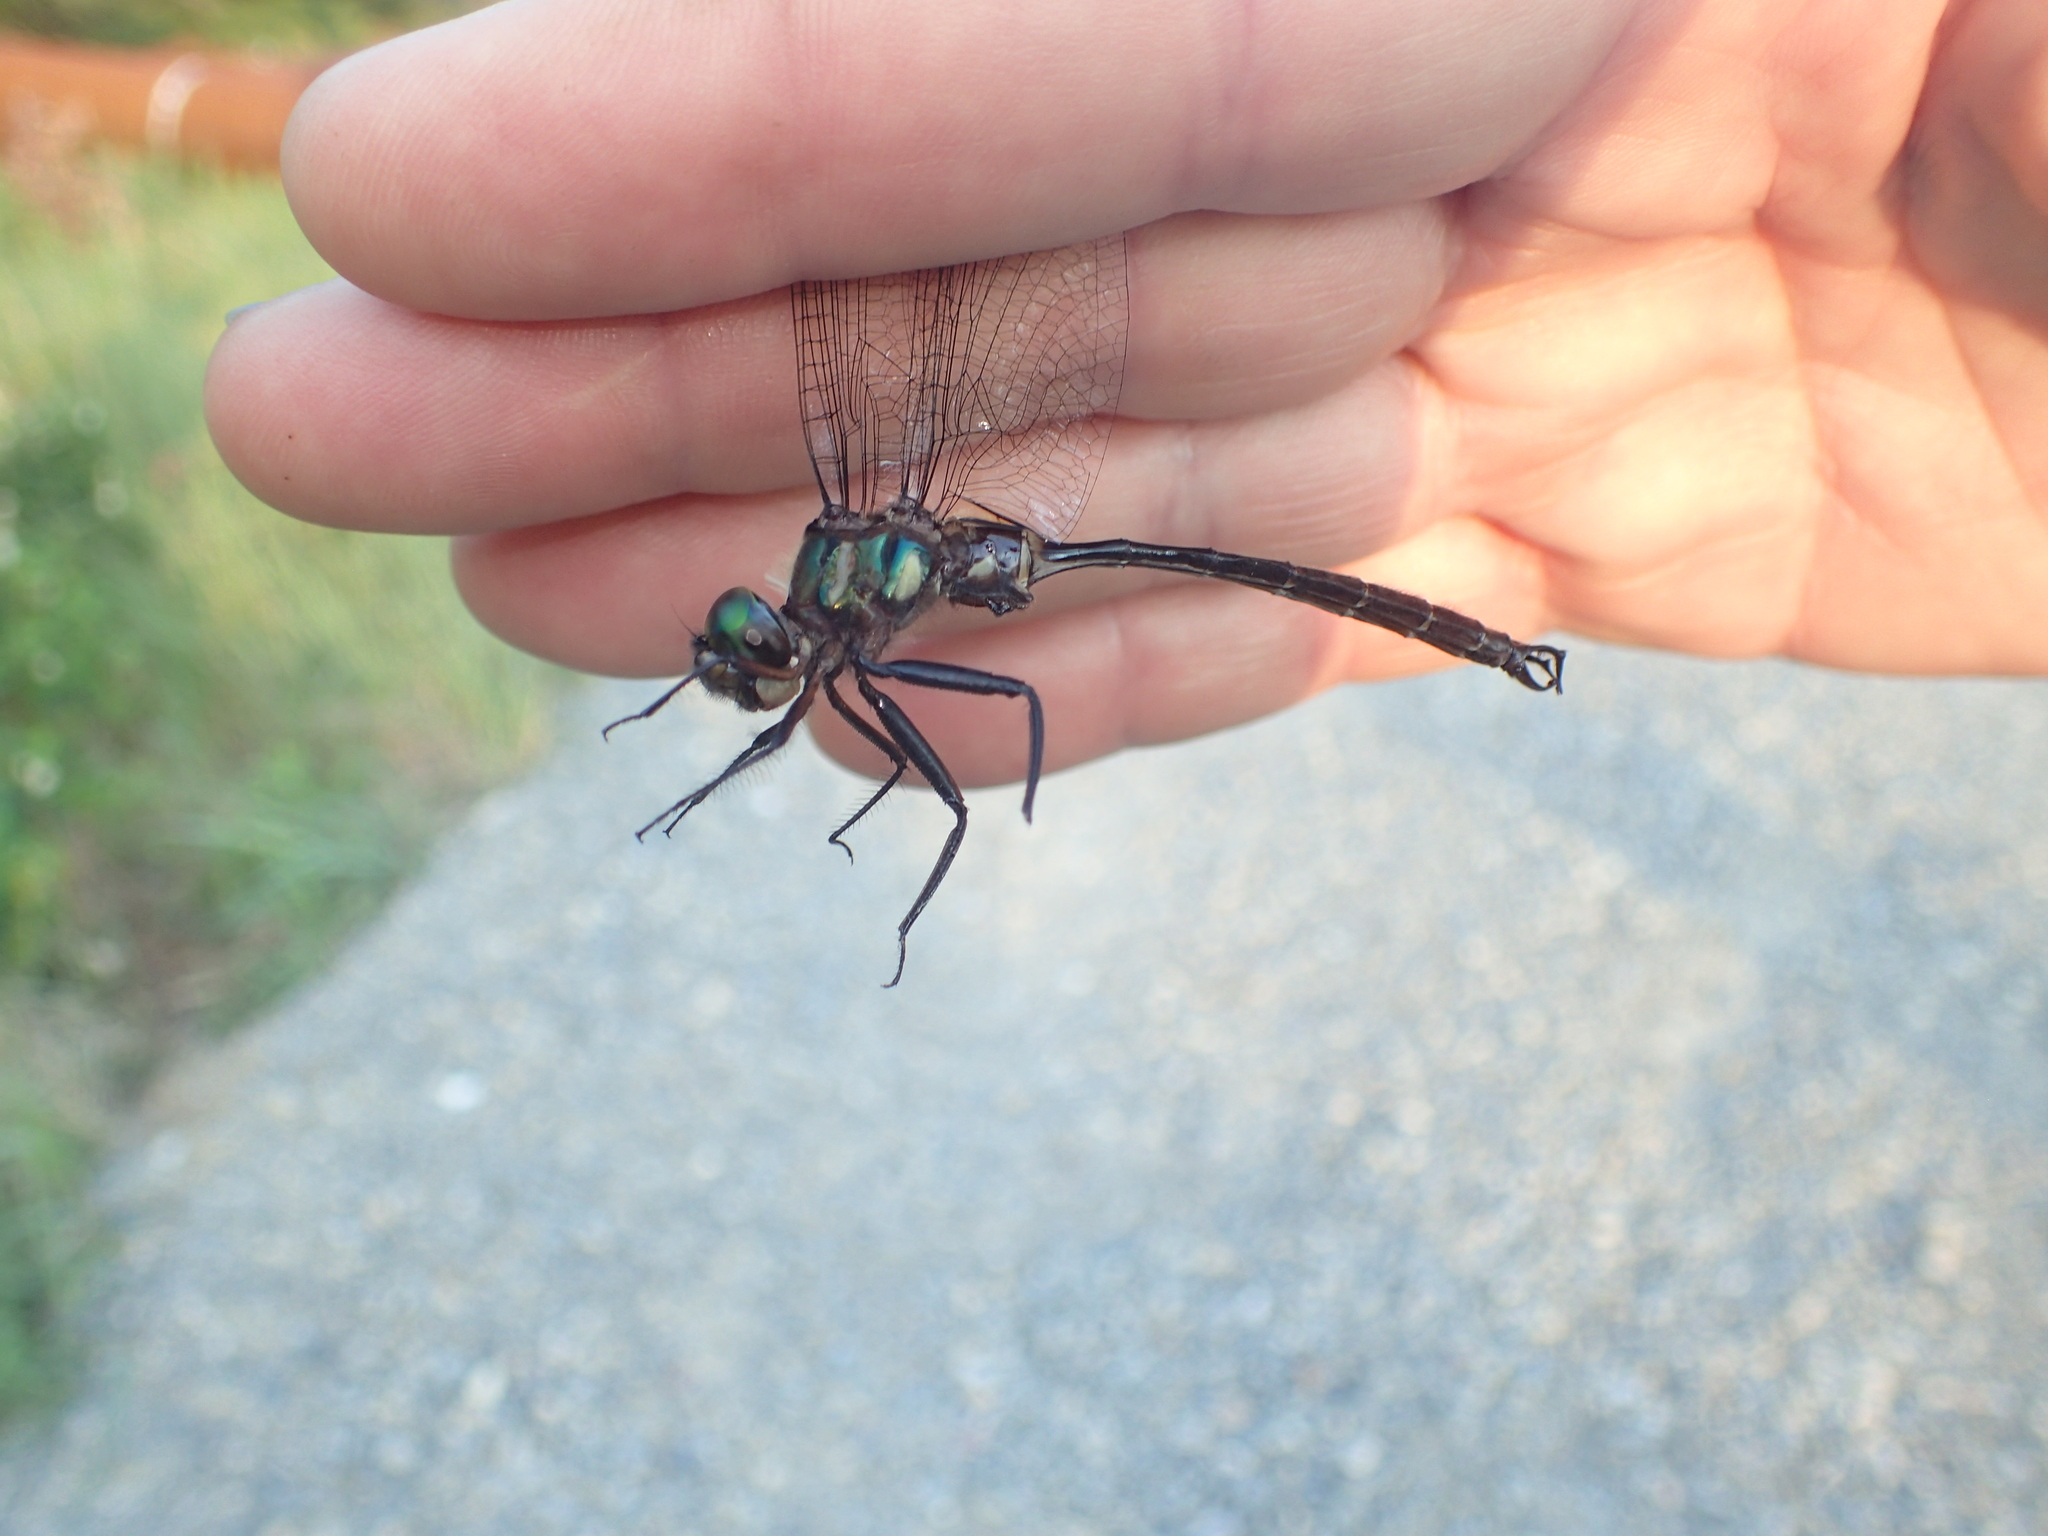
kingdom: Animalia
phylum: Arthropoda
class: Insecta
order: Odonata
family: Corduliidae
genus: Somatochlora
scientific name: Somatochlora tenebrosa
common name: Clamp-tipped emerald
